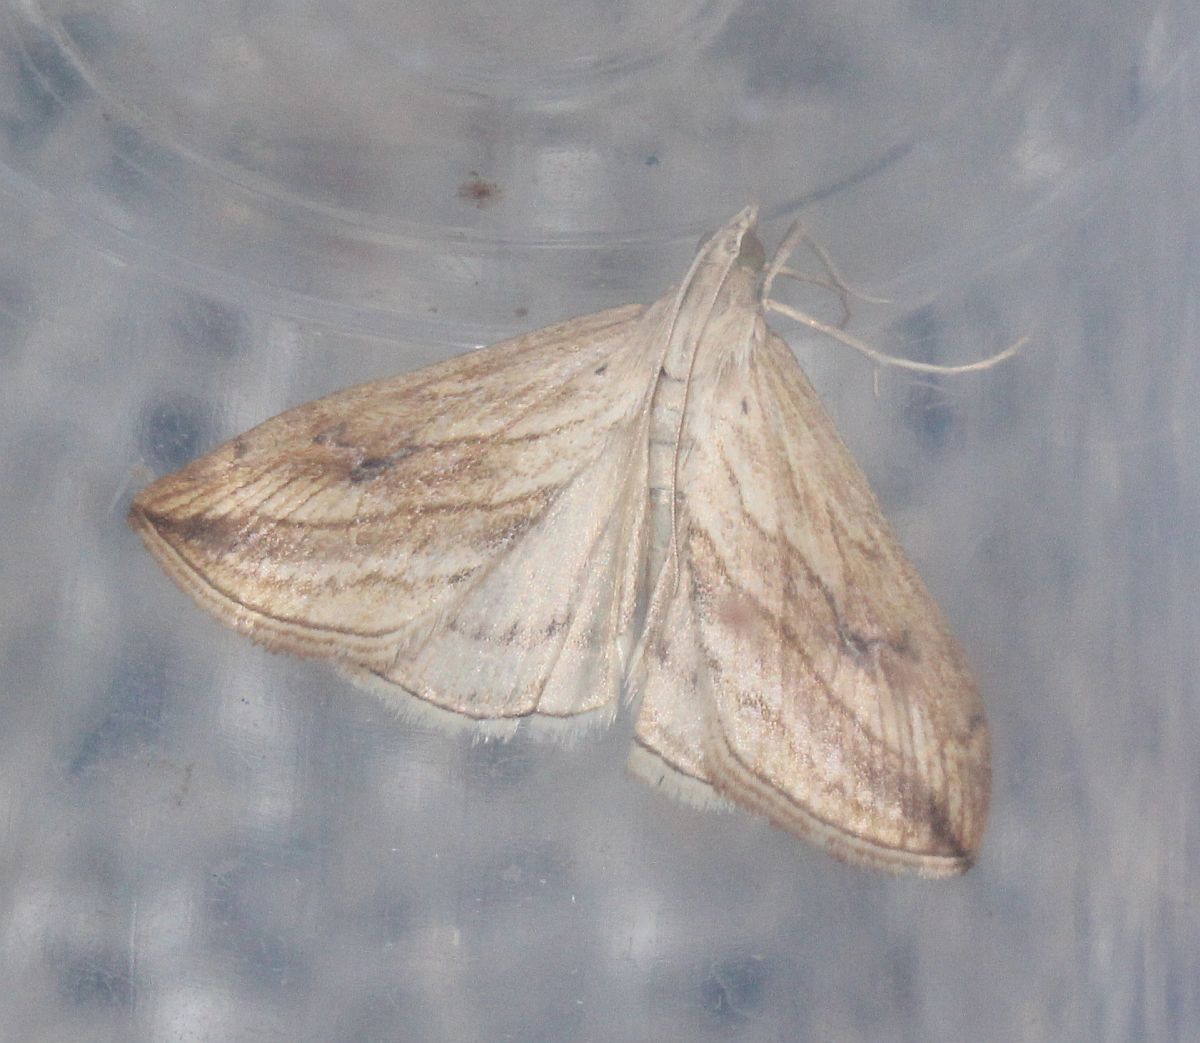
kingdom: Animalia
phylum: Arthropoda
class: Insecta
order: Lepidoptera
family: Crambidae
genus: Evergestis
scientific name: Evergestis forficalis
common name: Garden pebble
